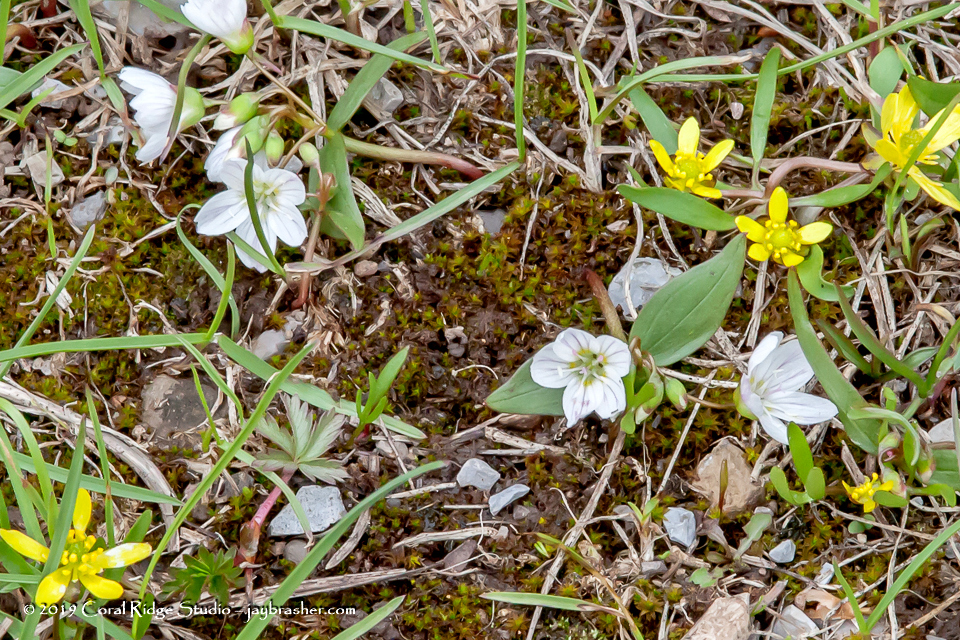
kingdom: Plantae
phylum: Tracheophyta
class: Magnoliopsida
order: Caryophyllales
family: Montiaceae
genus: Claytonia
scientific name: Claytonia lanceolata
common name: Western spring-beauty
